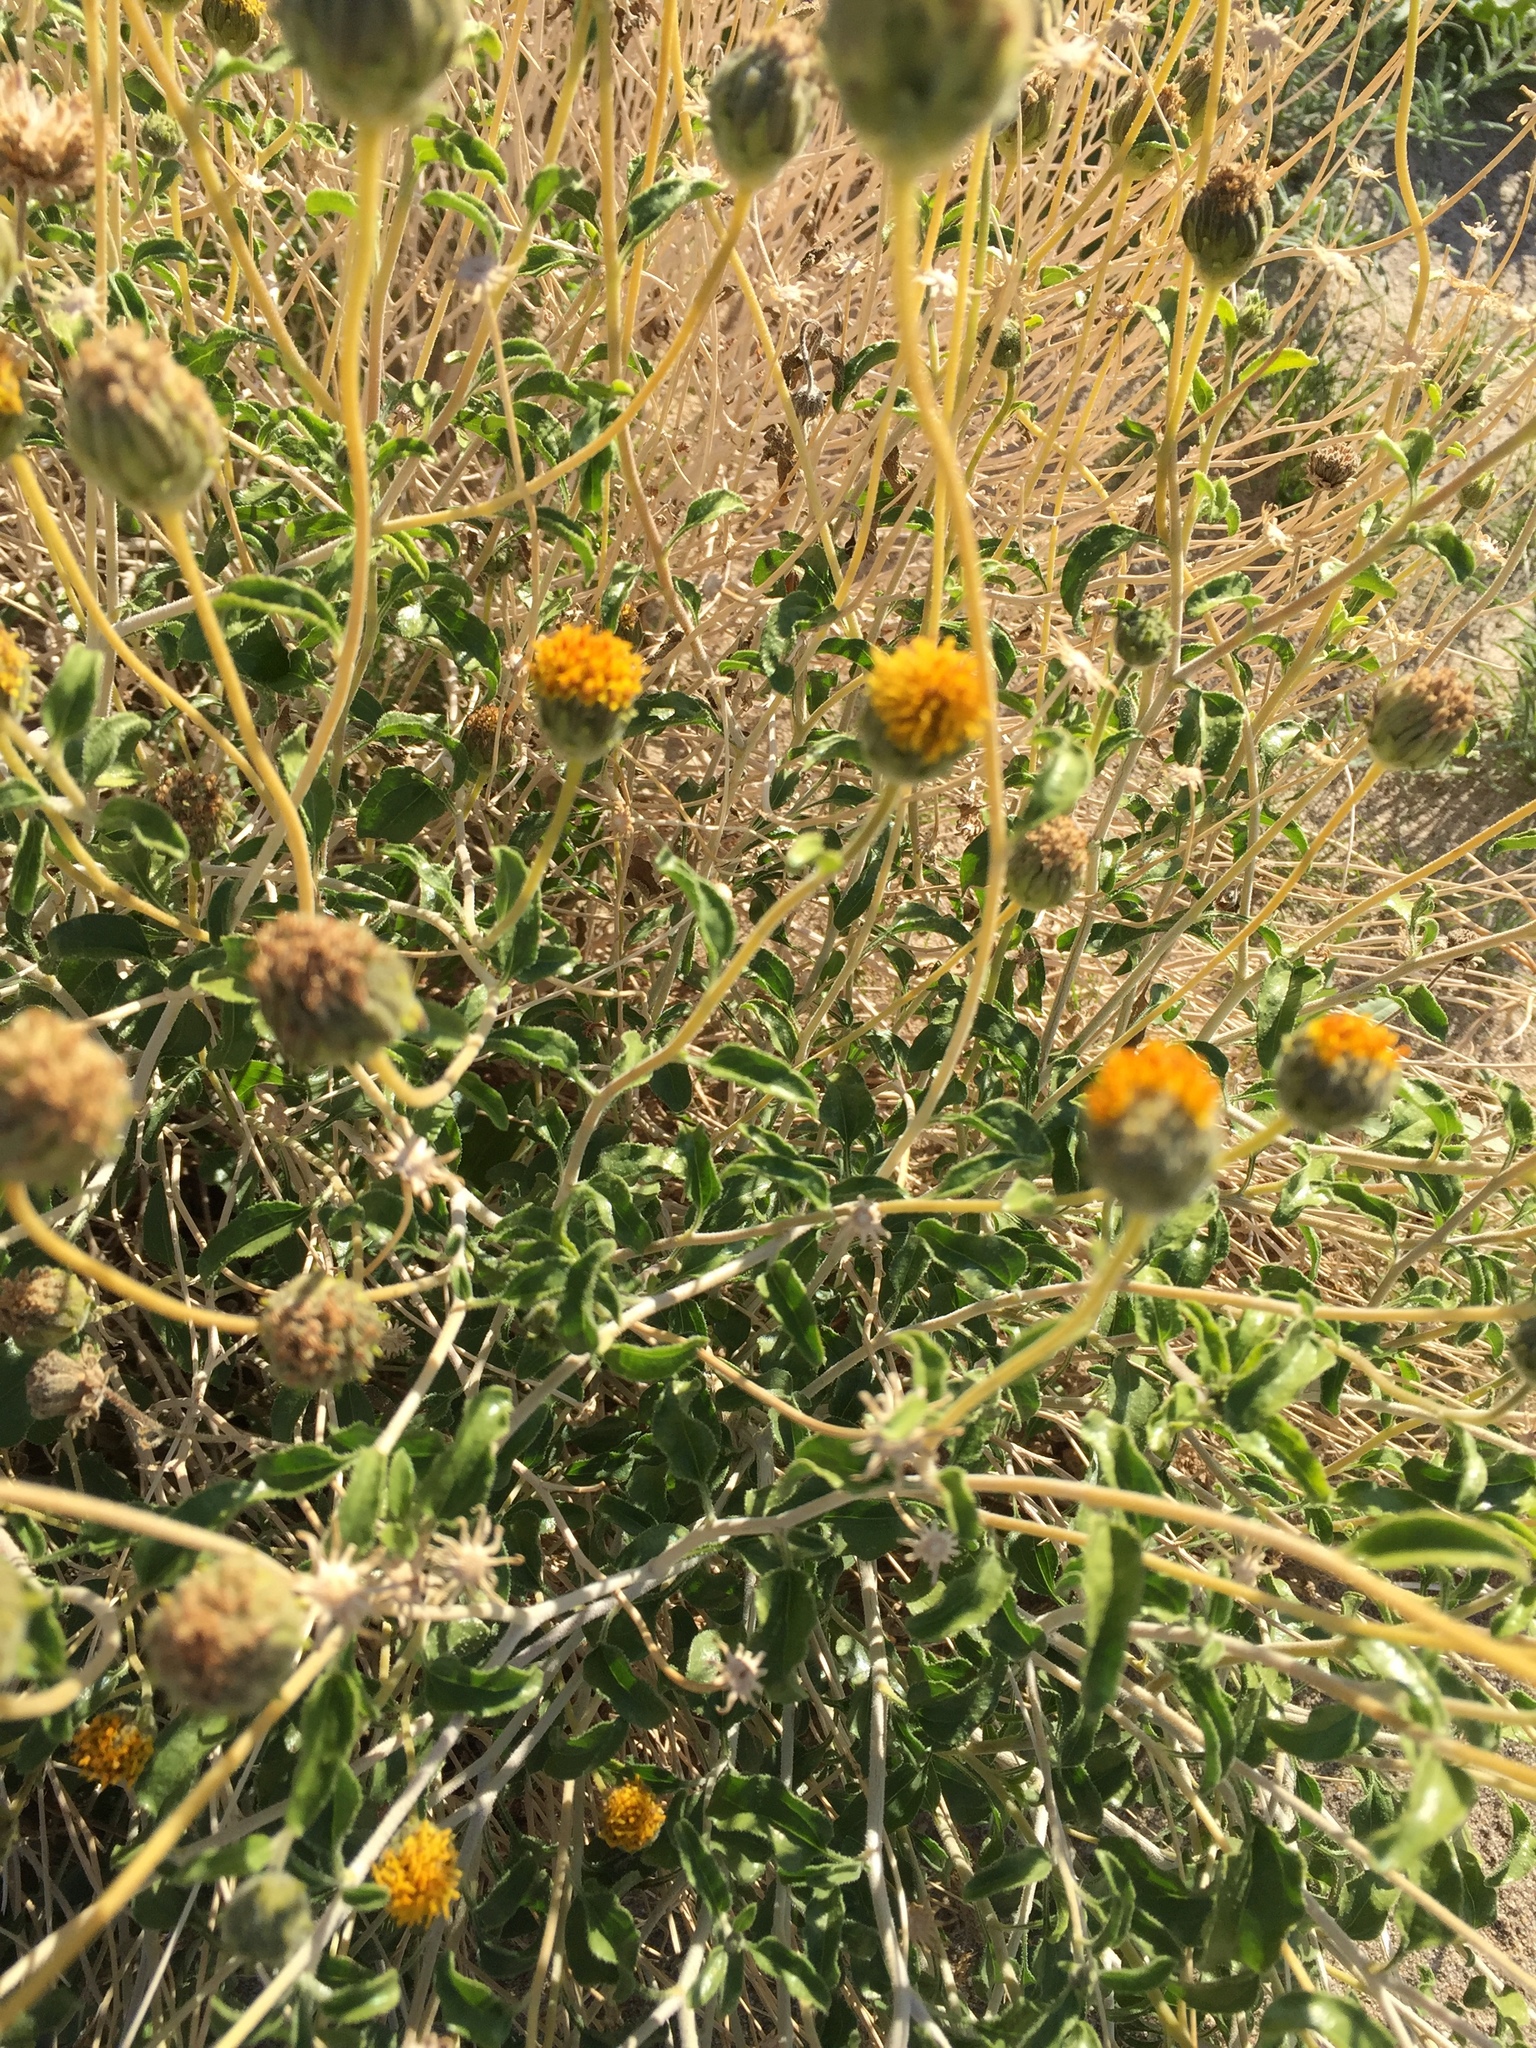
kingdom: Plantae
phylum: Tracheophyta
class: Magnoliopsida
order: Asterales
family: Asteraceae
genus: Encelia
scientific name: Encelia frutescens
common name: Bush encelia
